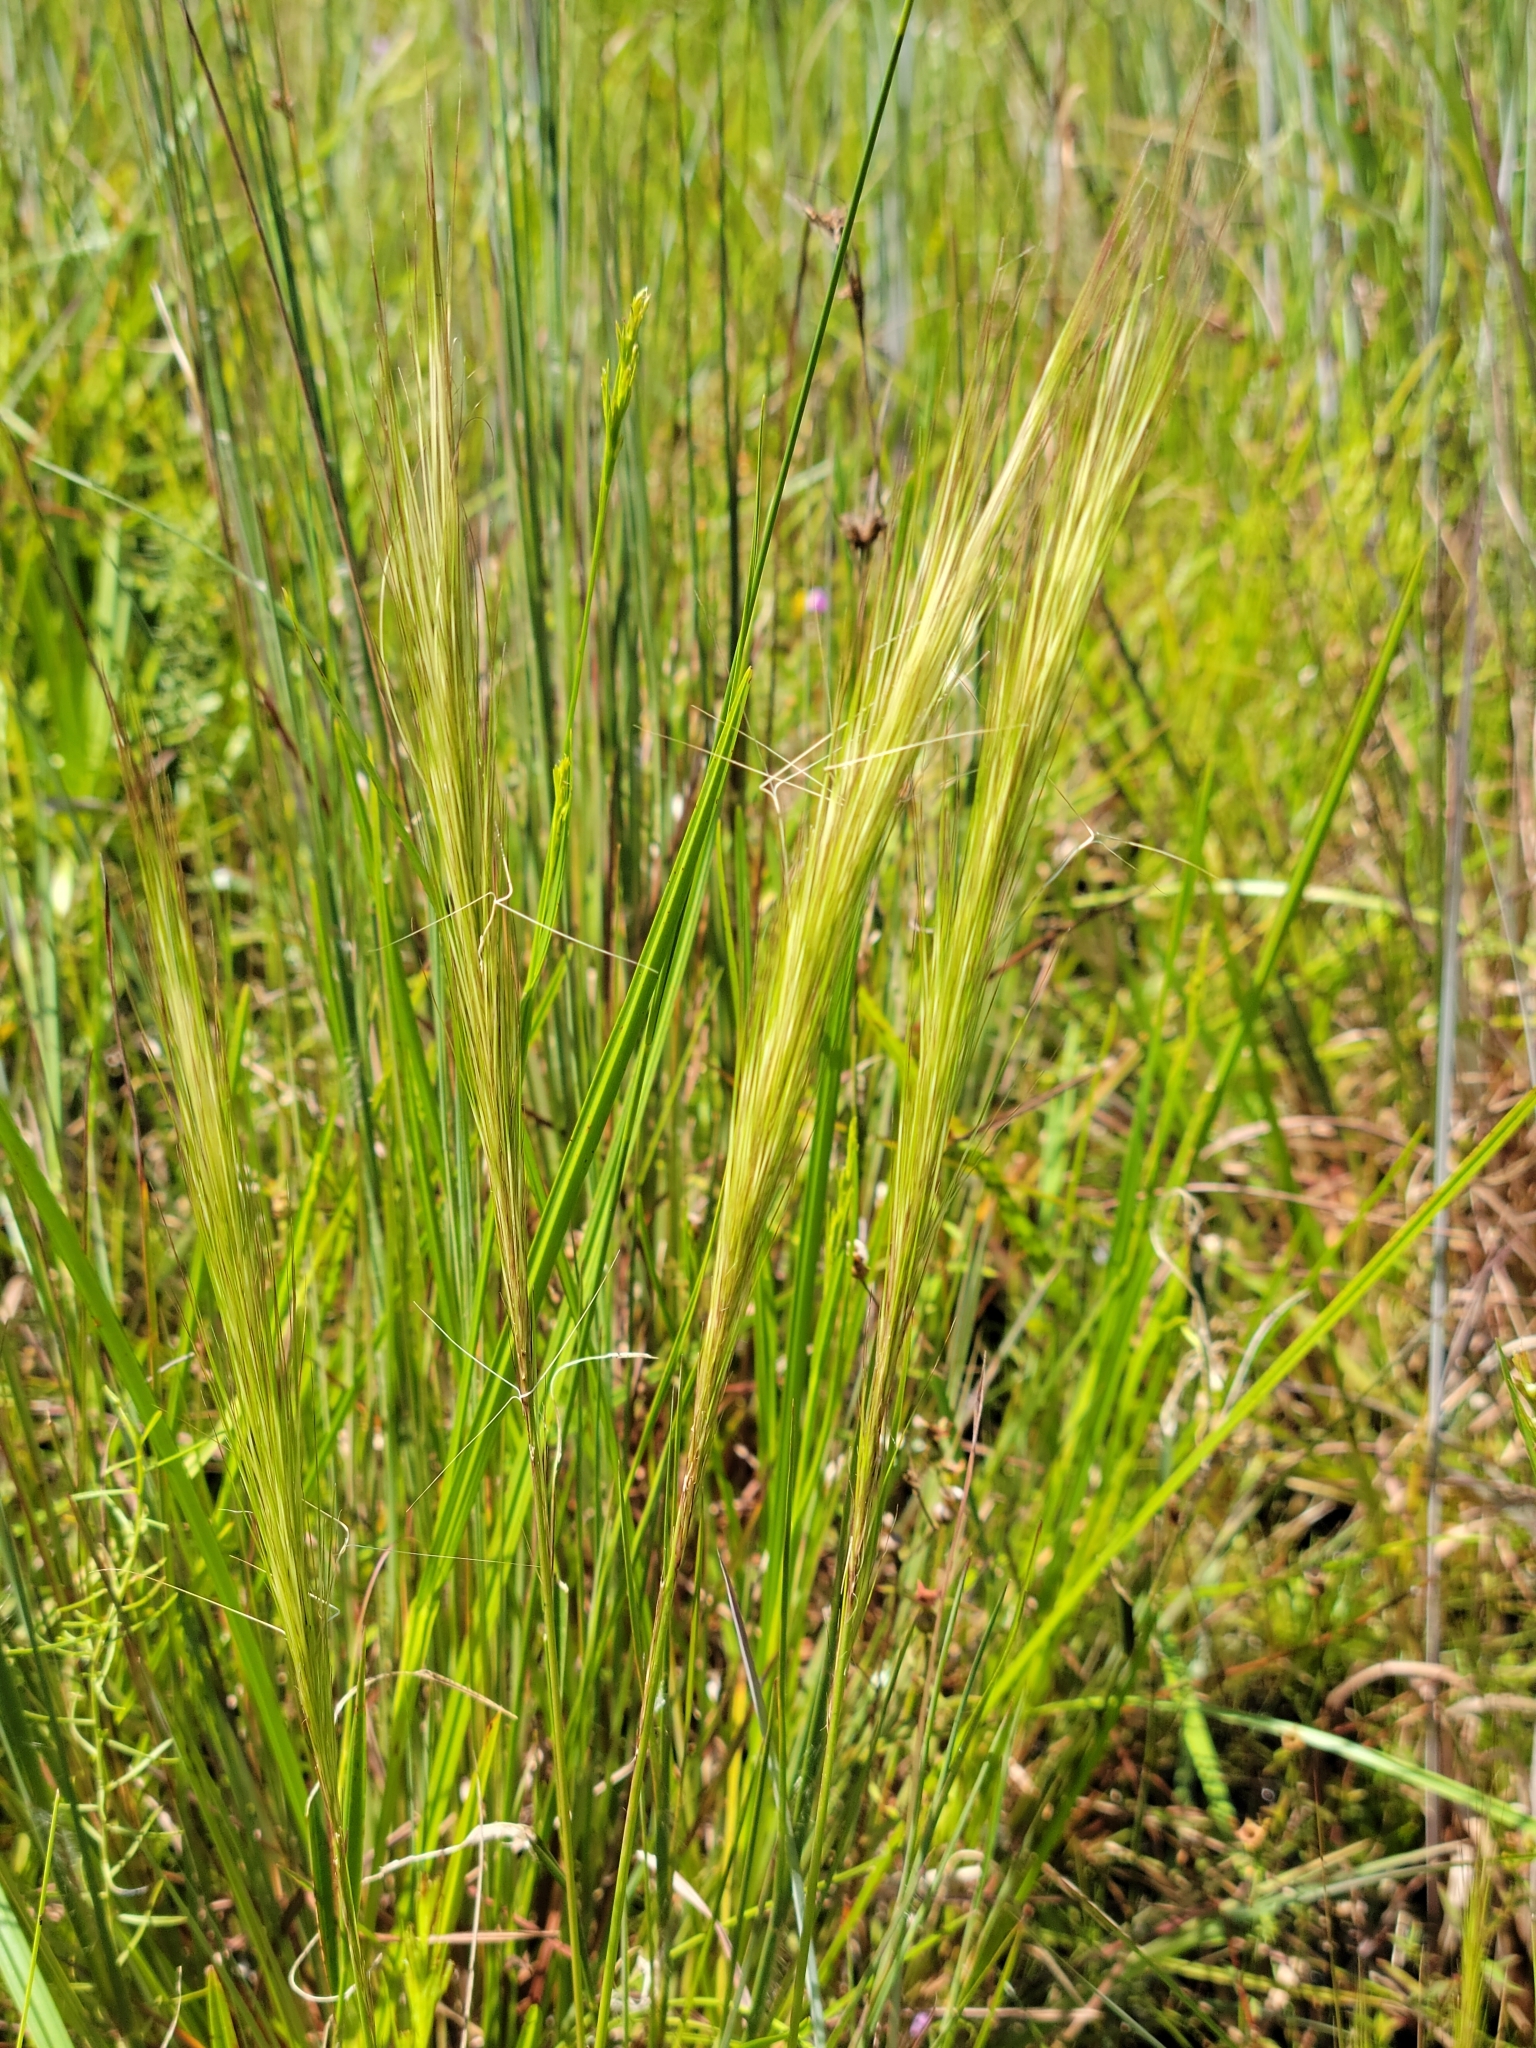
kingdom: Plantae
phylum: Tracheophyta
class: Liliopsida
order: Poales
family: Poaceae
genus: Aristida
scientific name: Aristida spiciformis
